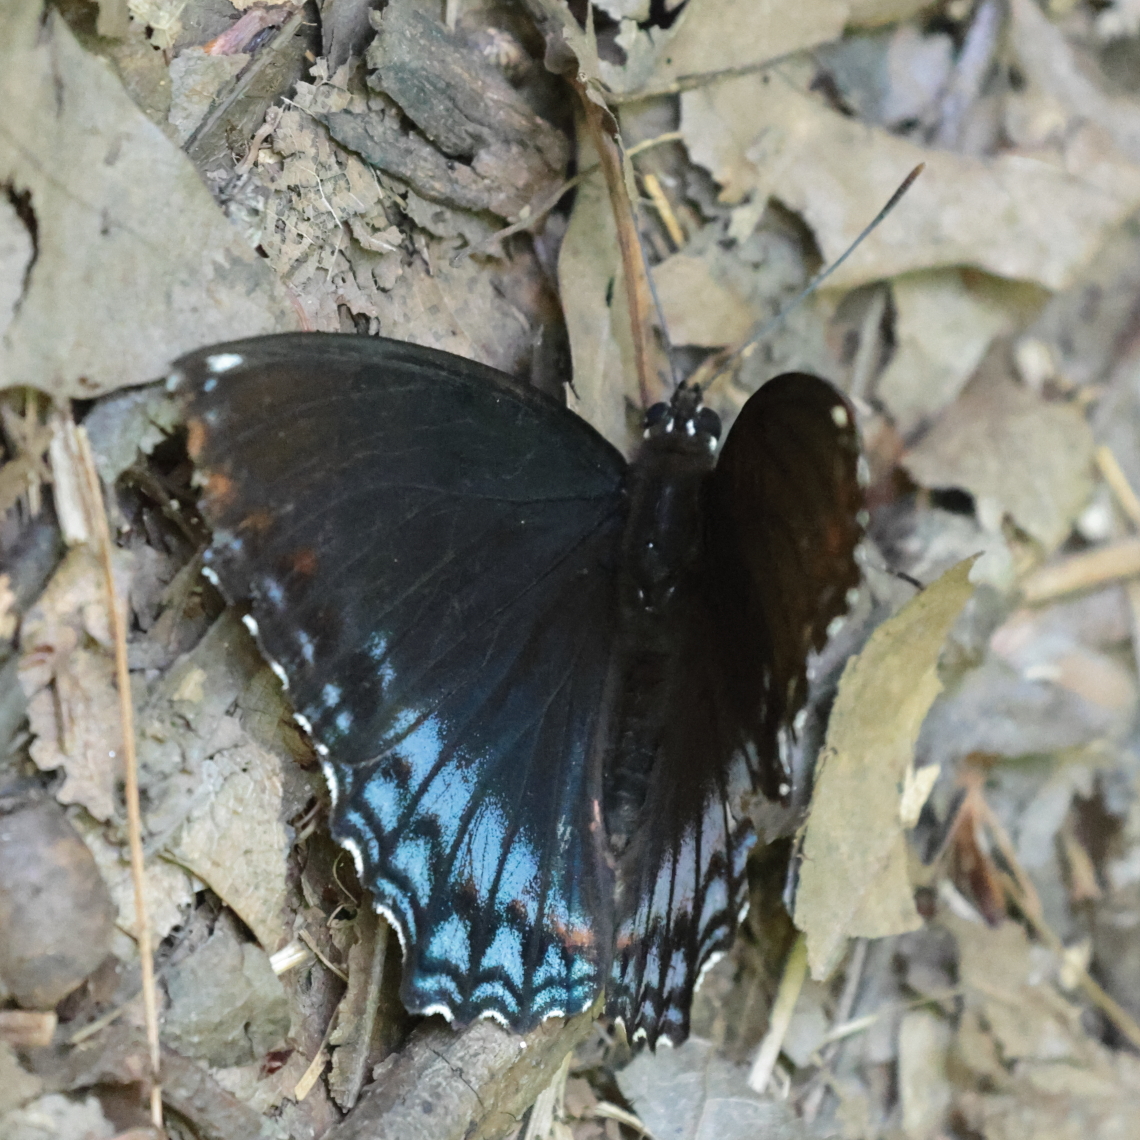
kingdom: Animalia
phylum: Arthropoda
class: Insecta
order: Lepidoptera
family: Nymphalidae
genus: Limenitis
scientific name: Limenitis arthemis
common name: Red-spotted admiral
